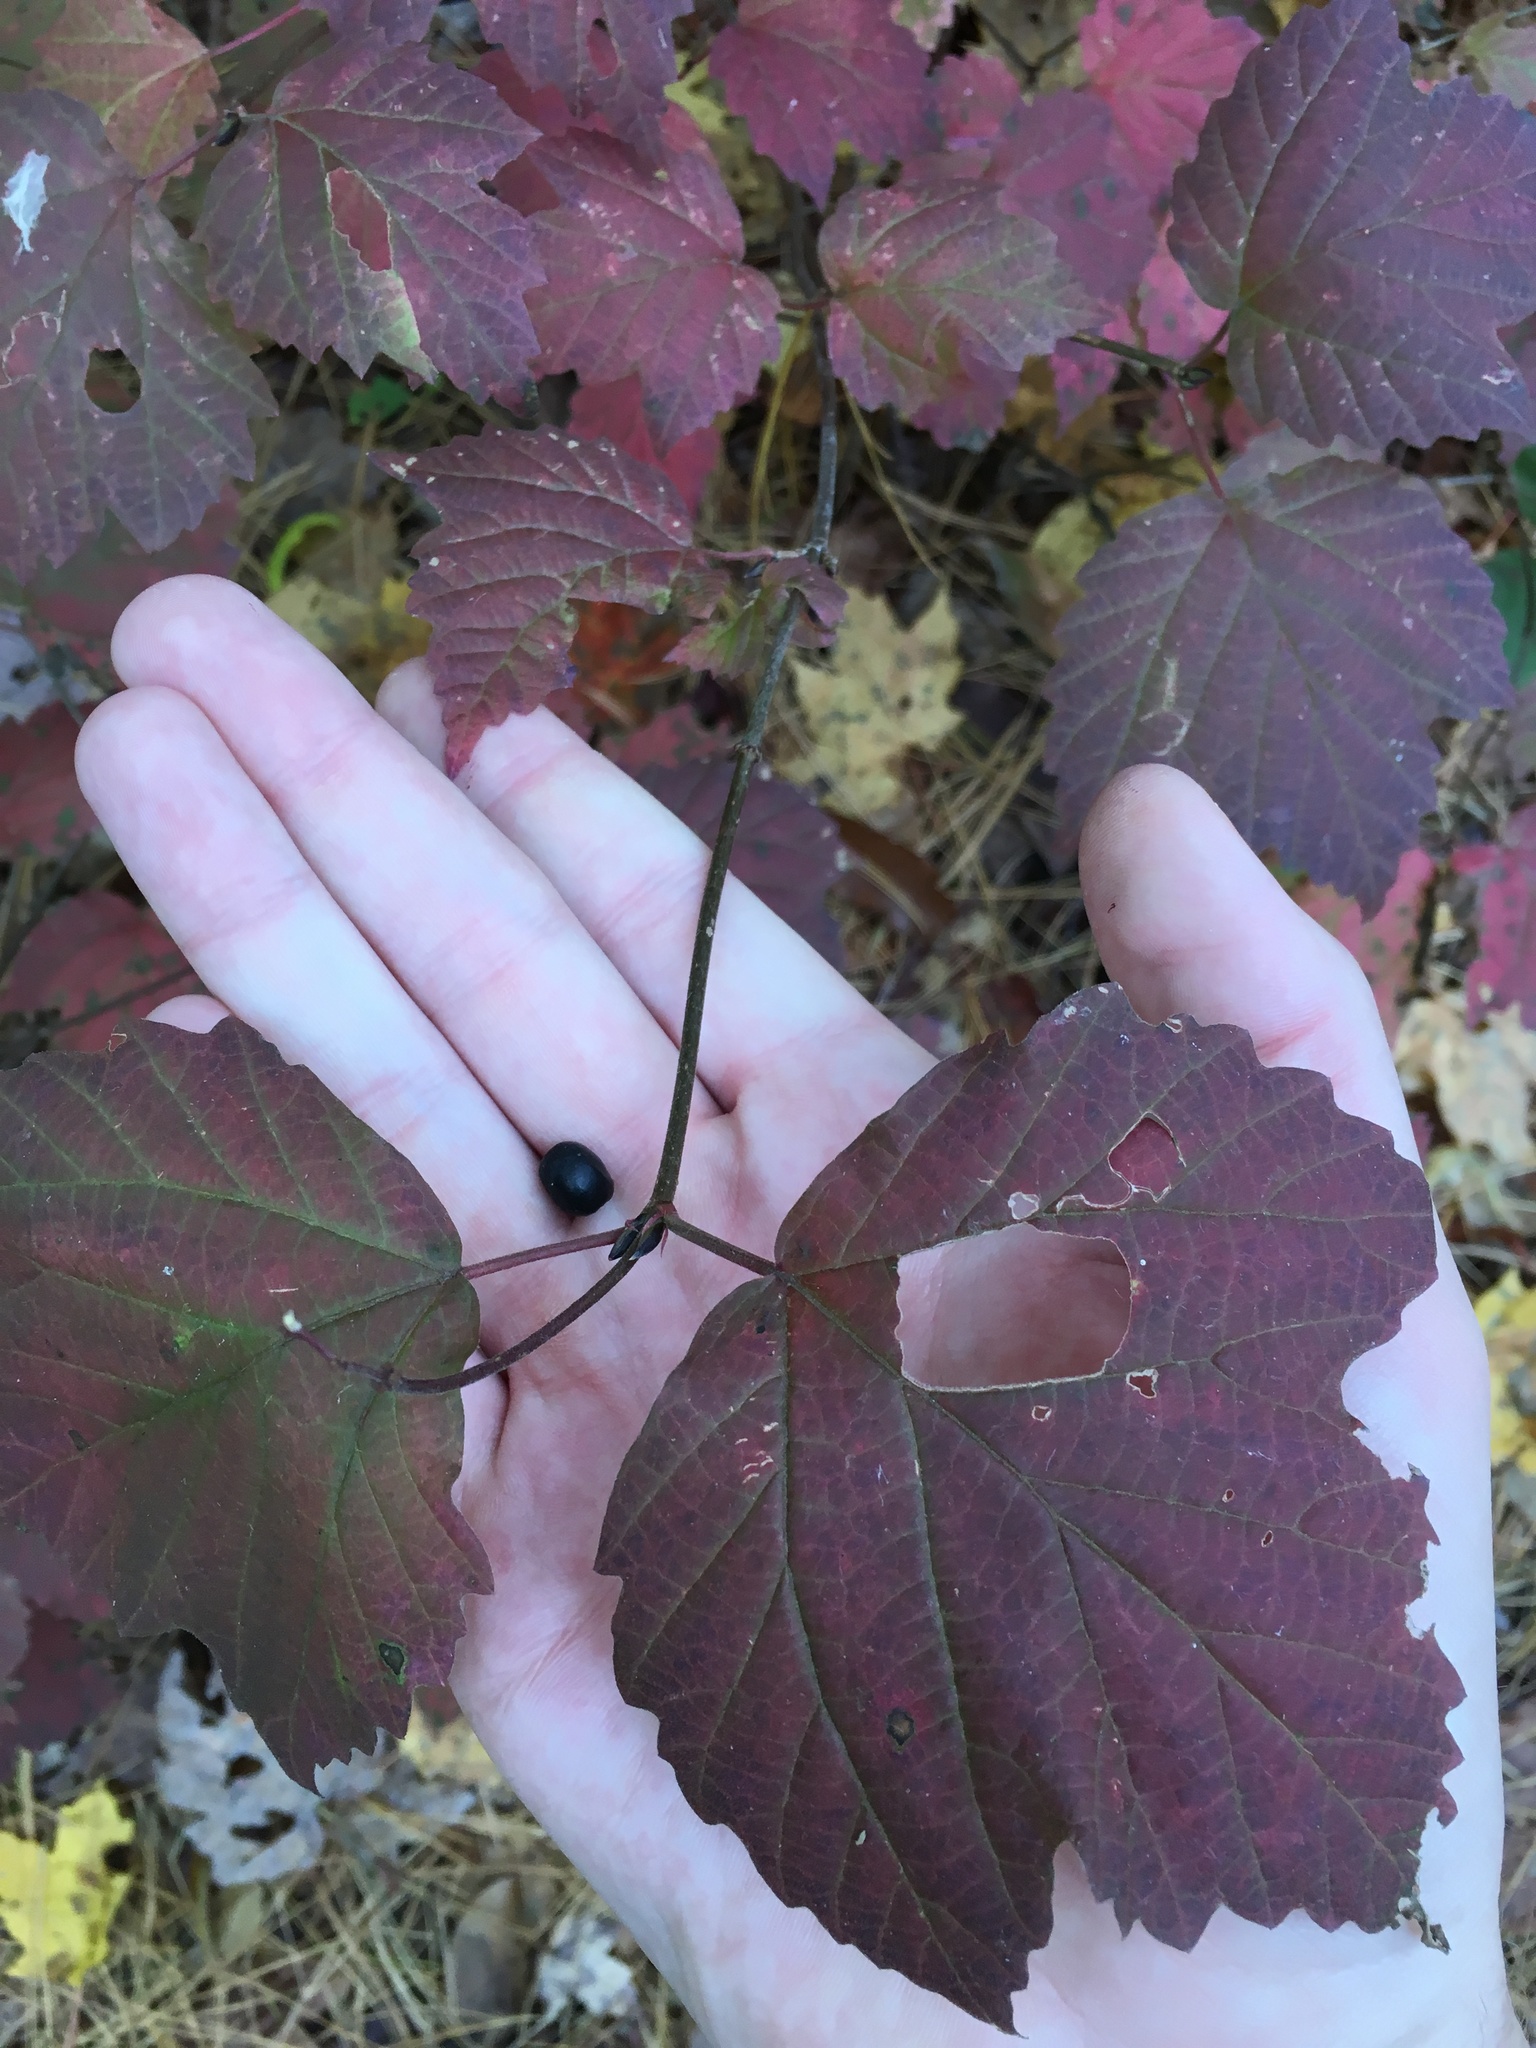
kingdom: Plantae
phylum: Tracheophyta
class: Magnoliopsida
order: Dipsacales
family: Viburnaceae
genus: Viburnum
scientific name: Viburnum acerifolium
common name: Dockmackie
